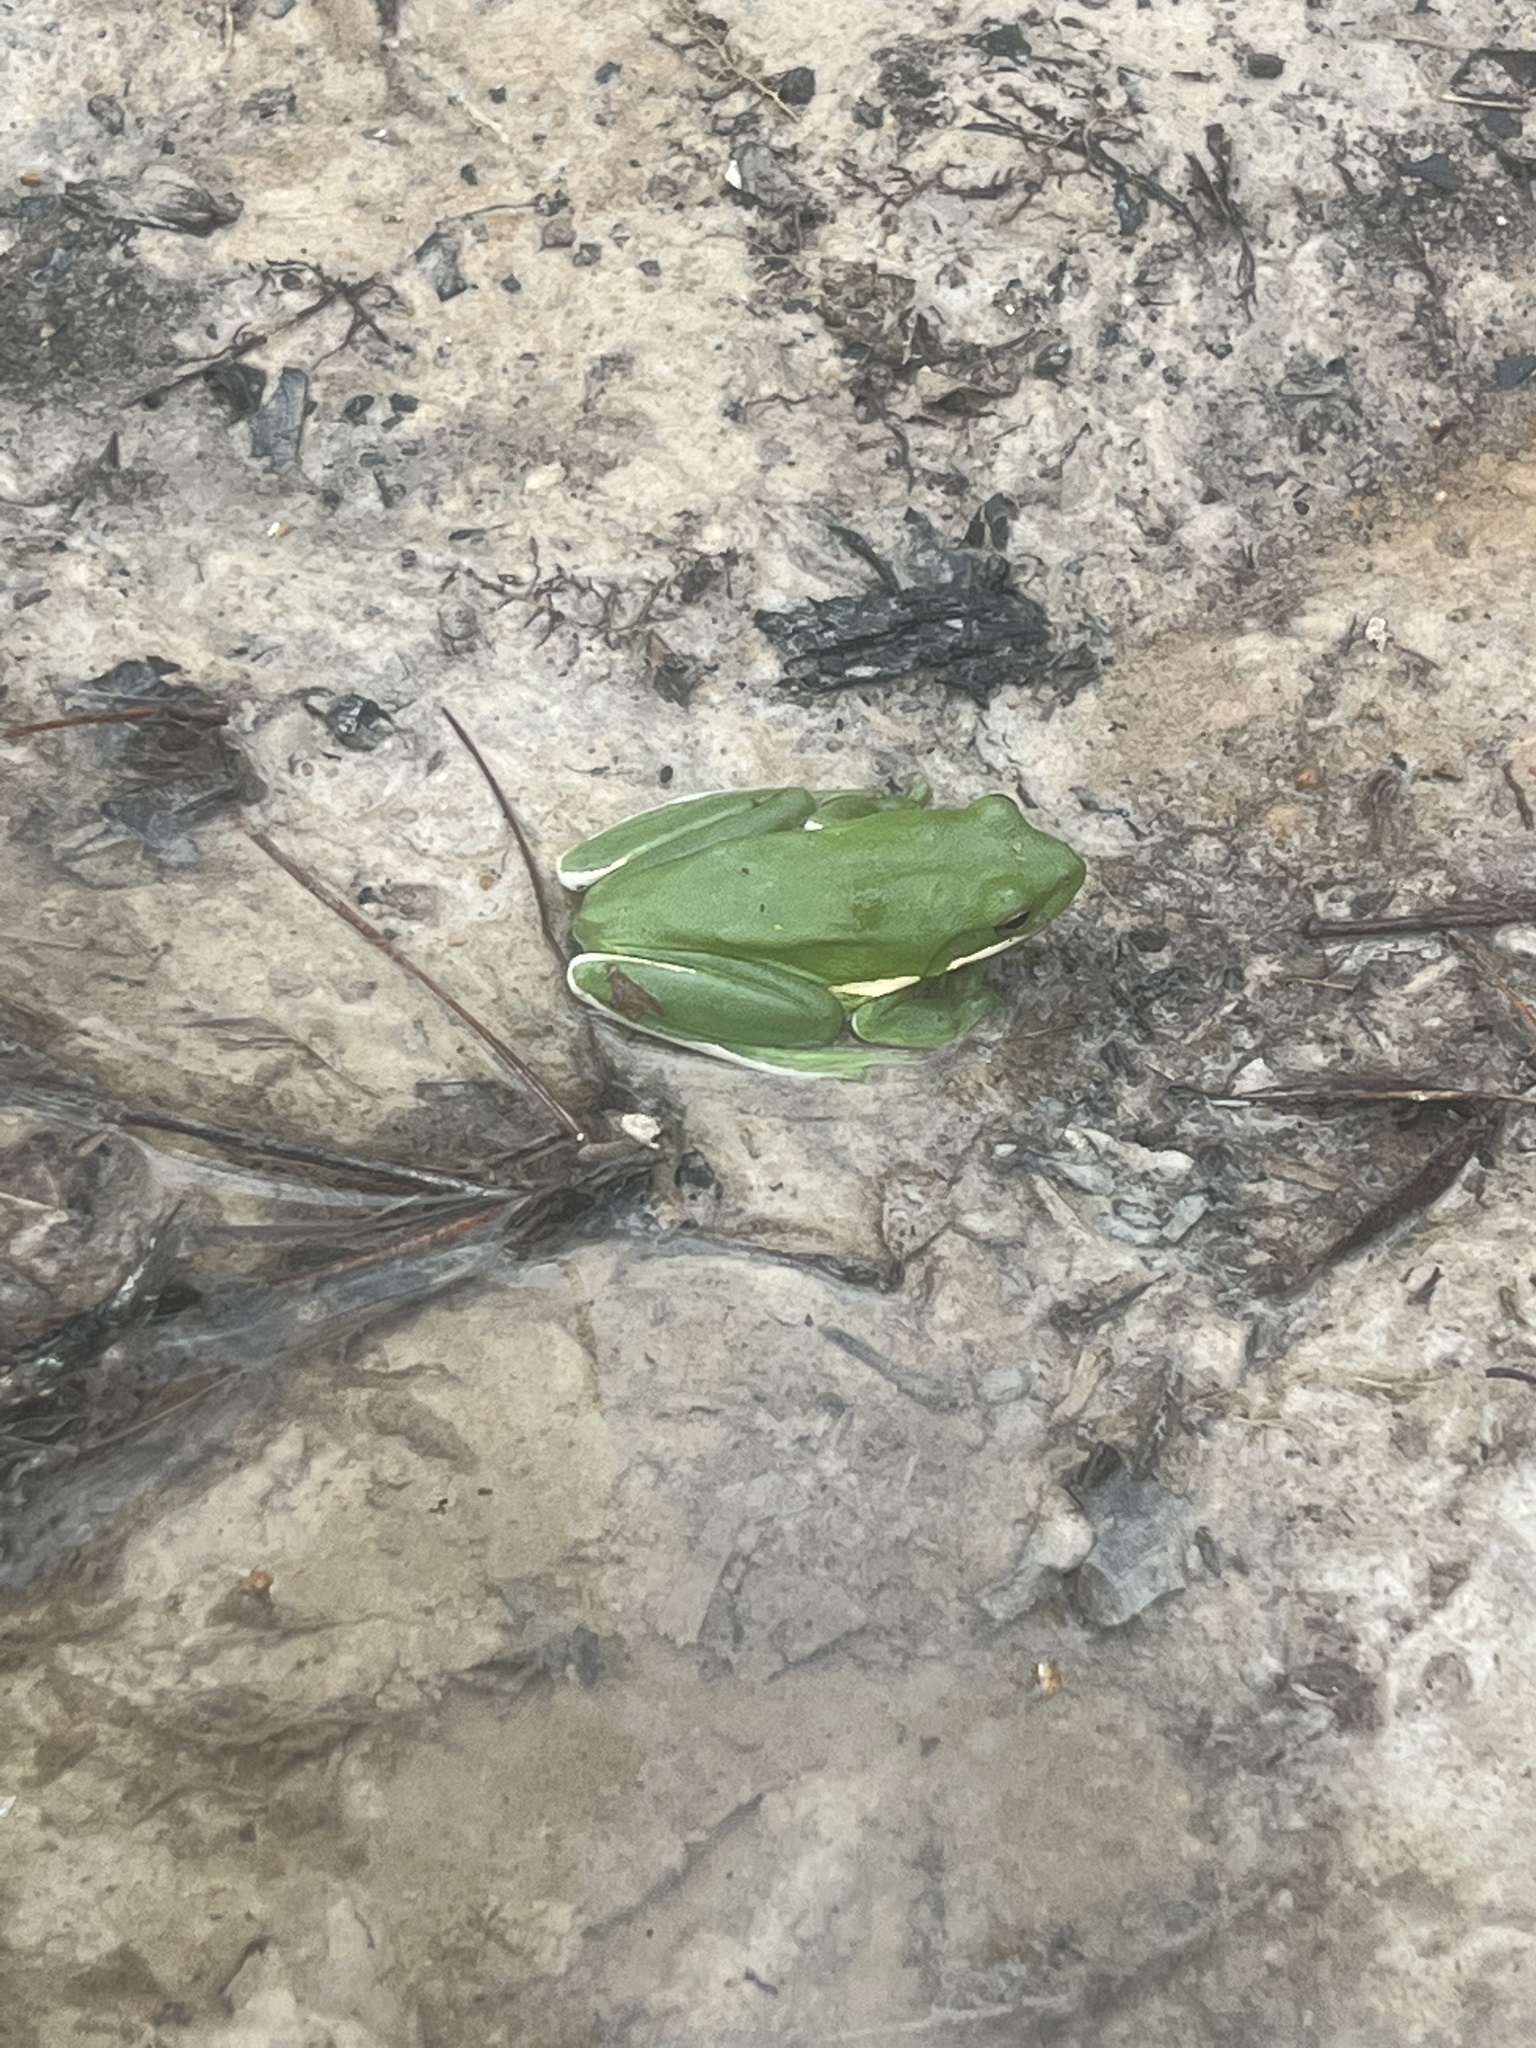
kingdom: Animalia
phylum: Chordata
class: Amphibia
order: Anura
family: Hylidae
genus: Dryophytes
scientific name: Dryophytes cinereus
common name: Green treefrog
